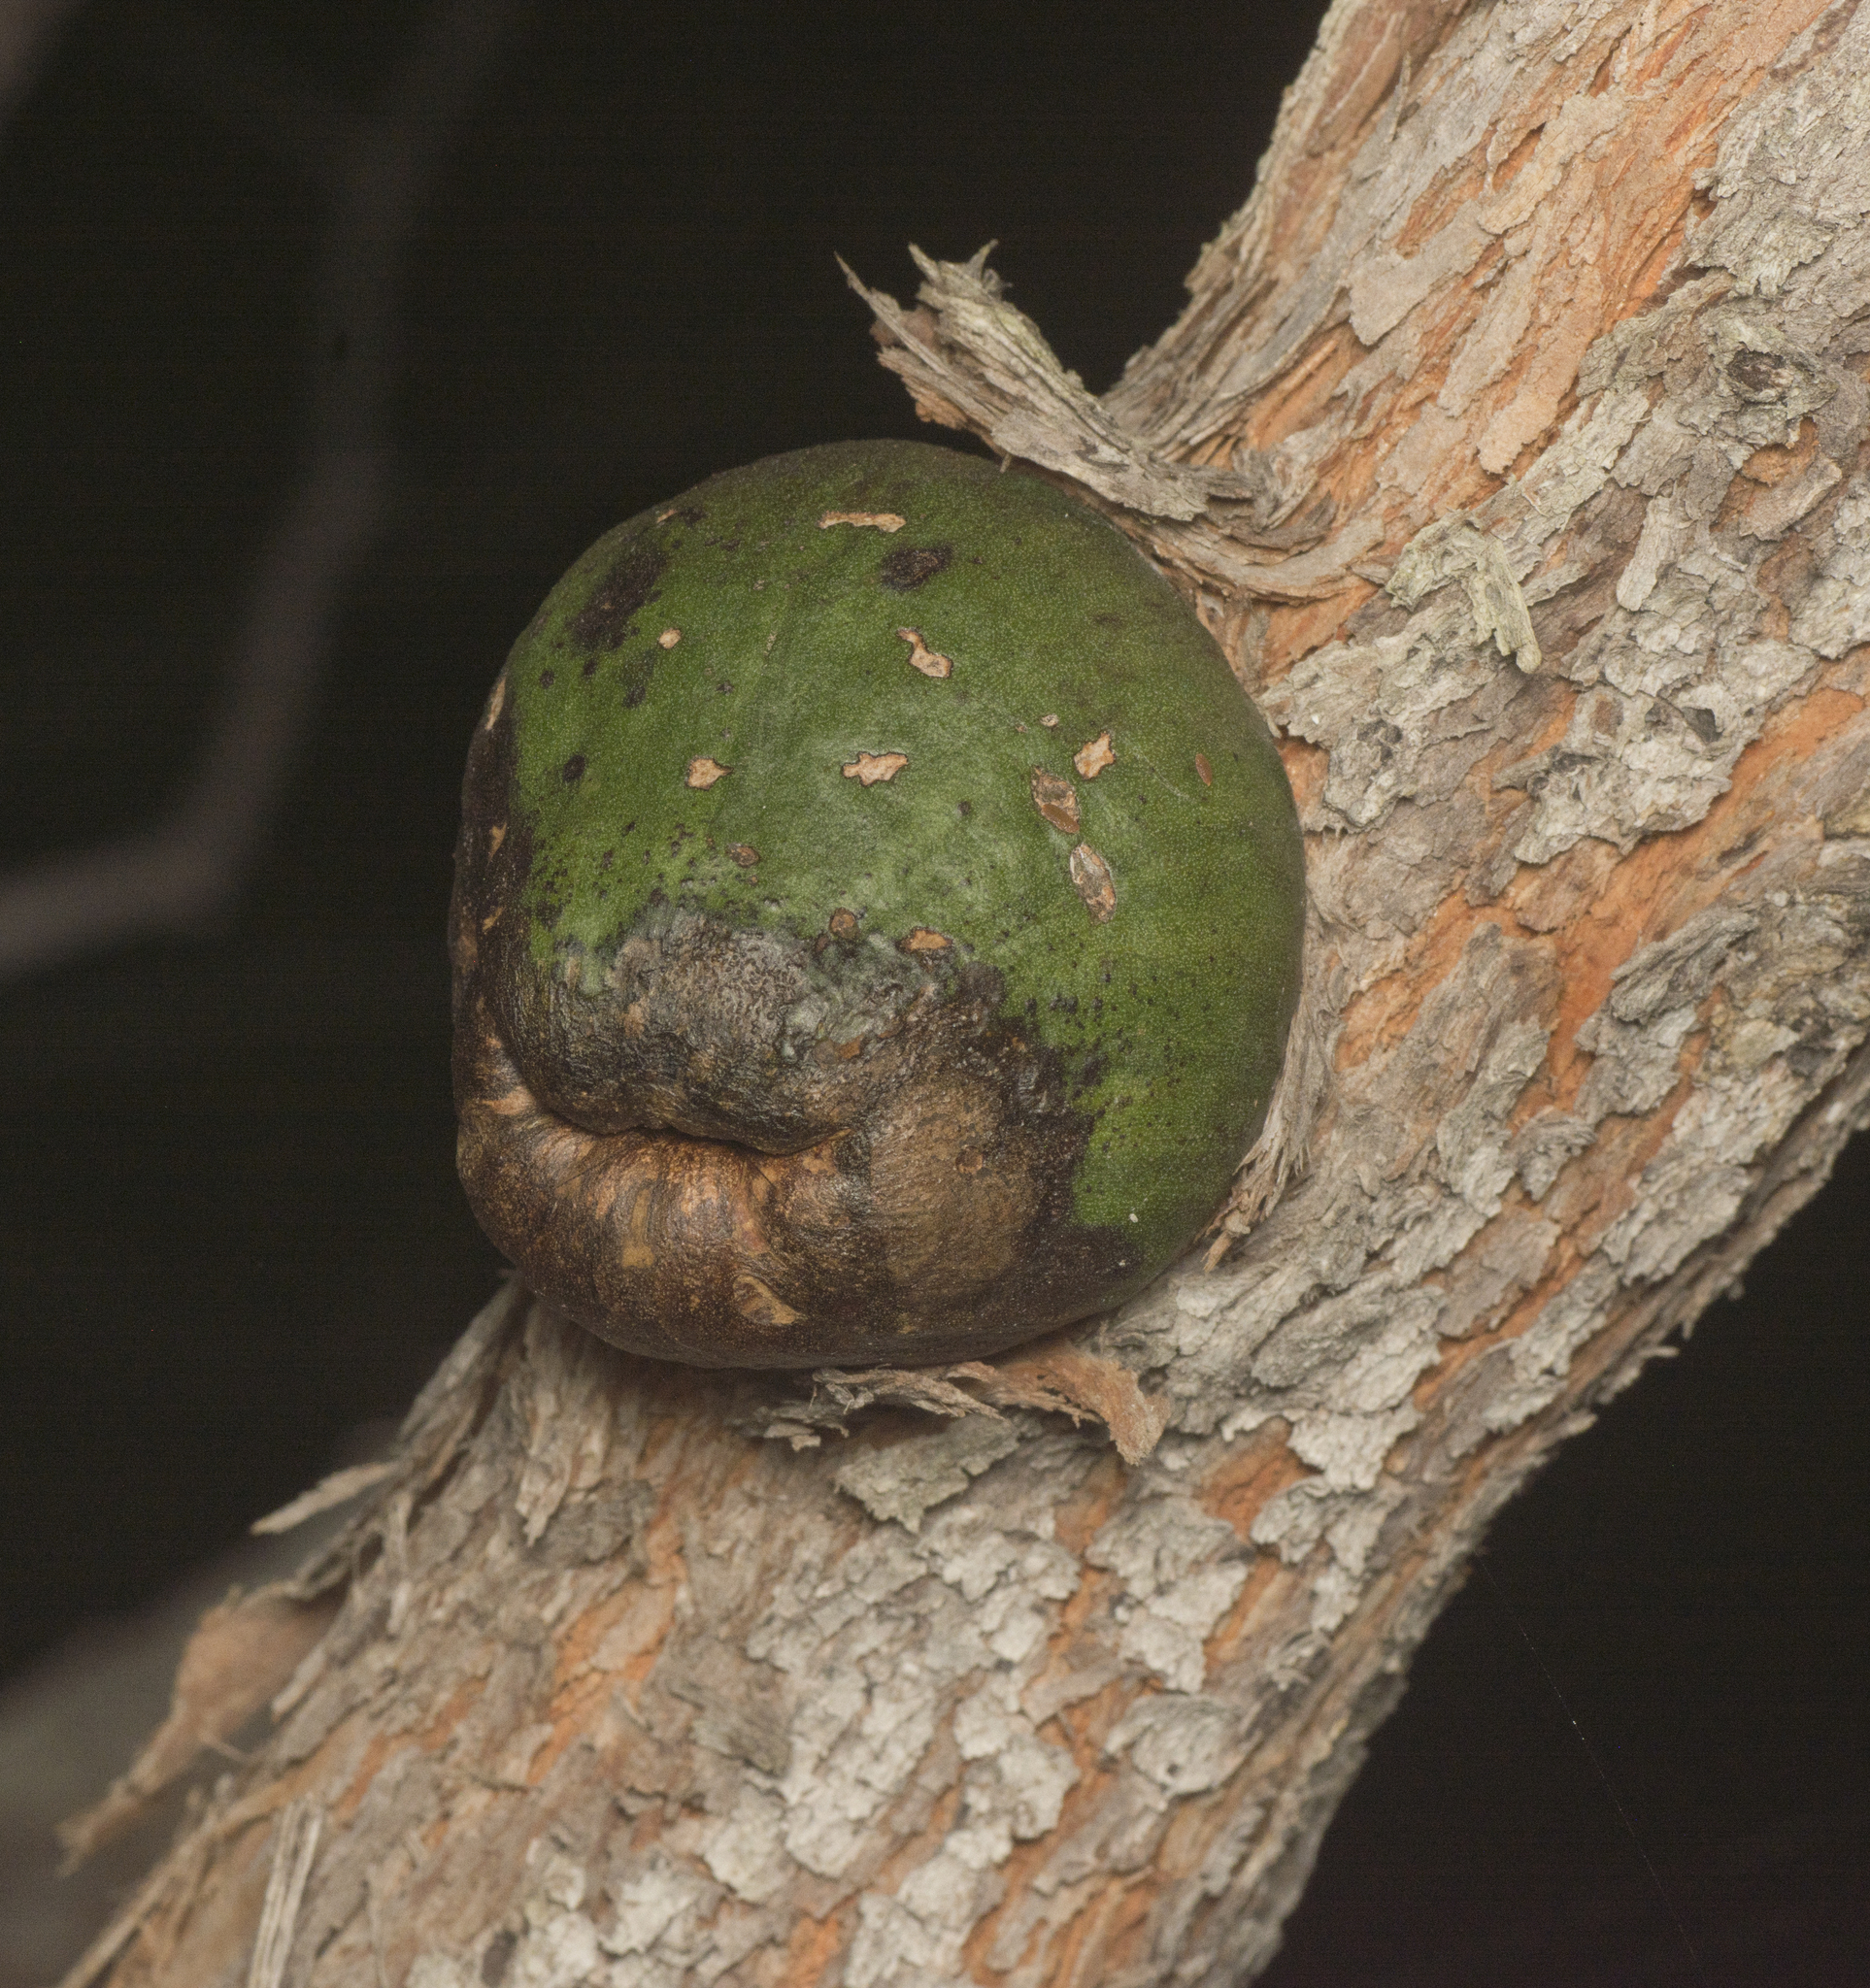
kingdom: Animalia
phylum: Arthropoda
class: Insecta
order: Hemiptera
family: Eriococcidae
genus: Apiomorpha
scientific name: Apiomorpha variabilis
